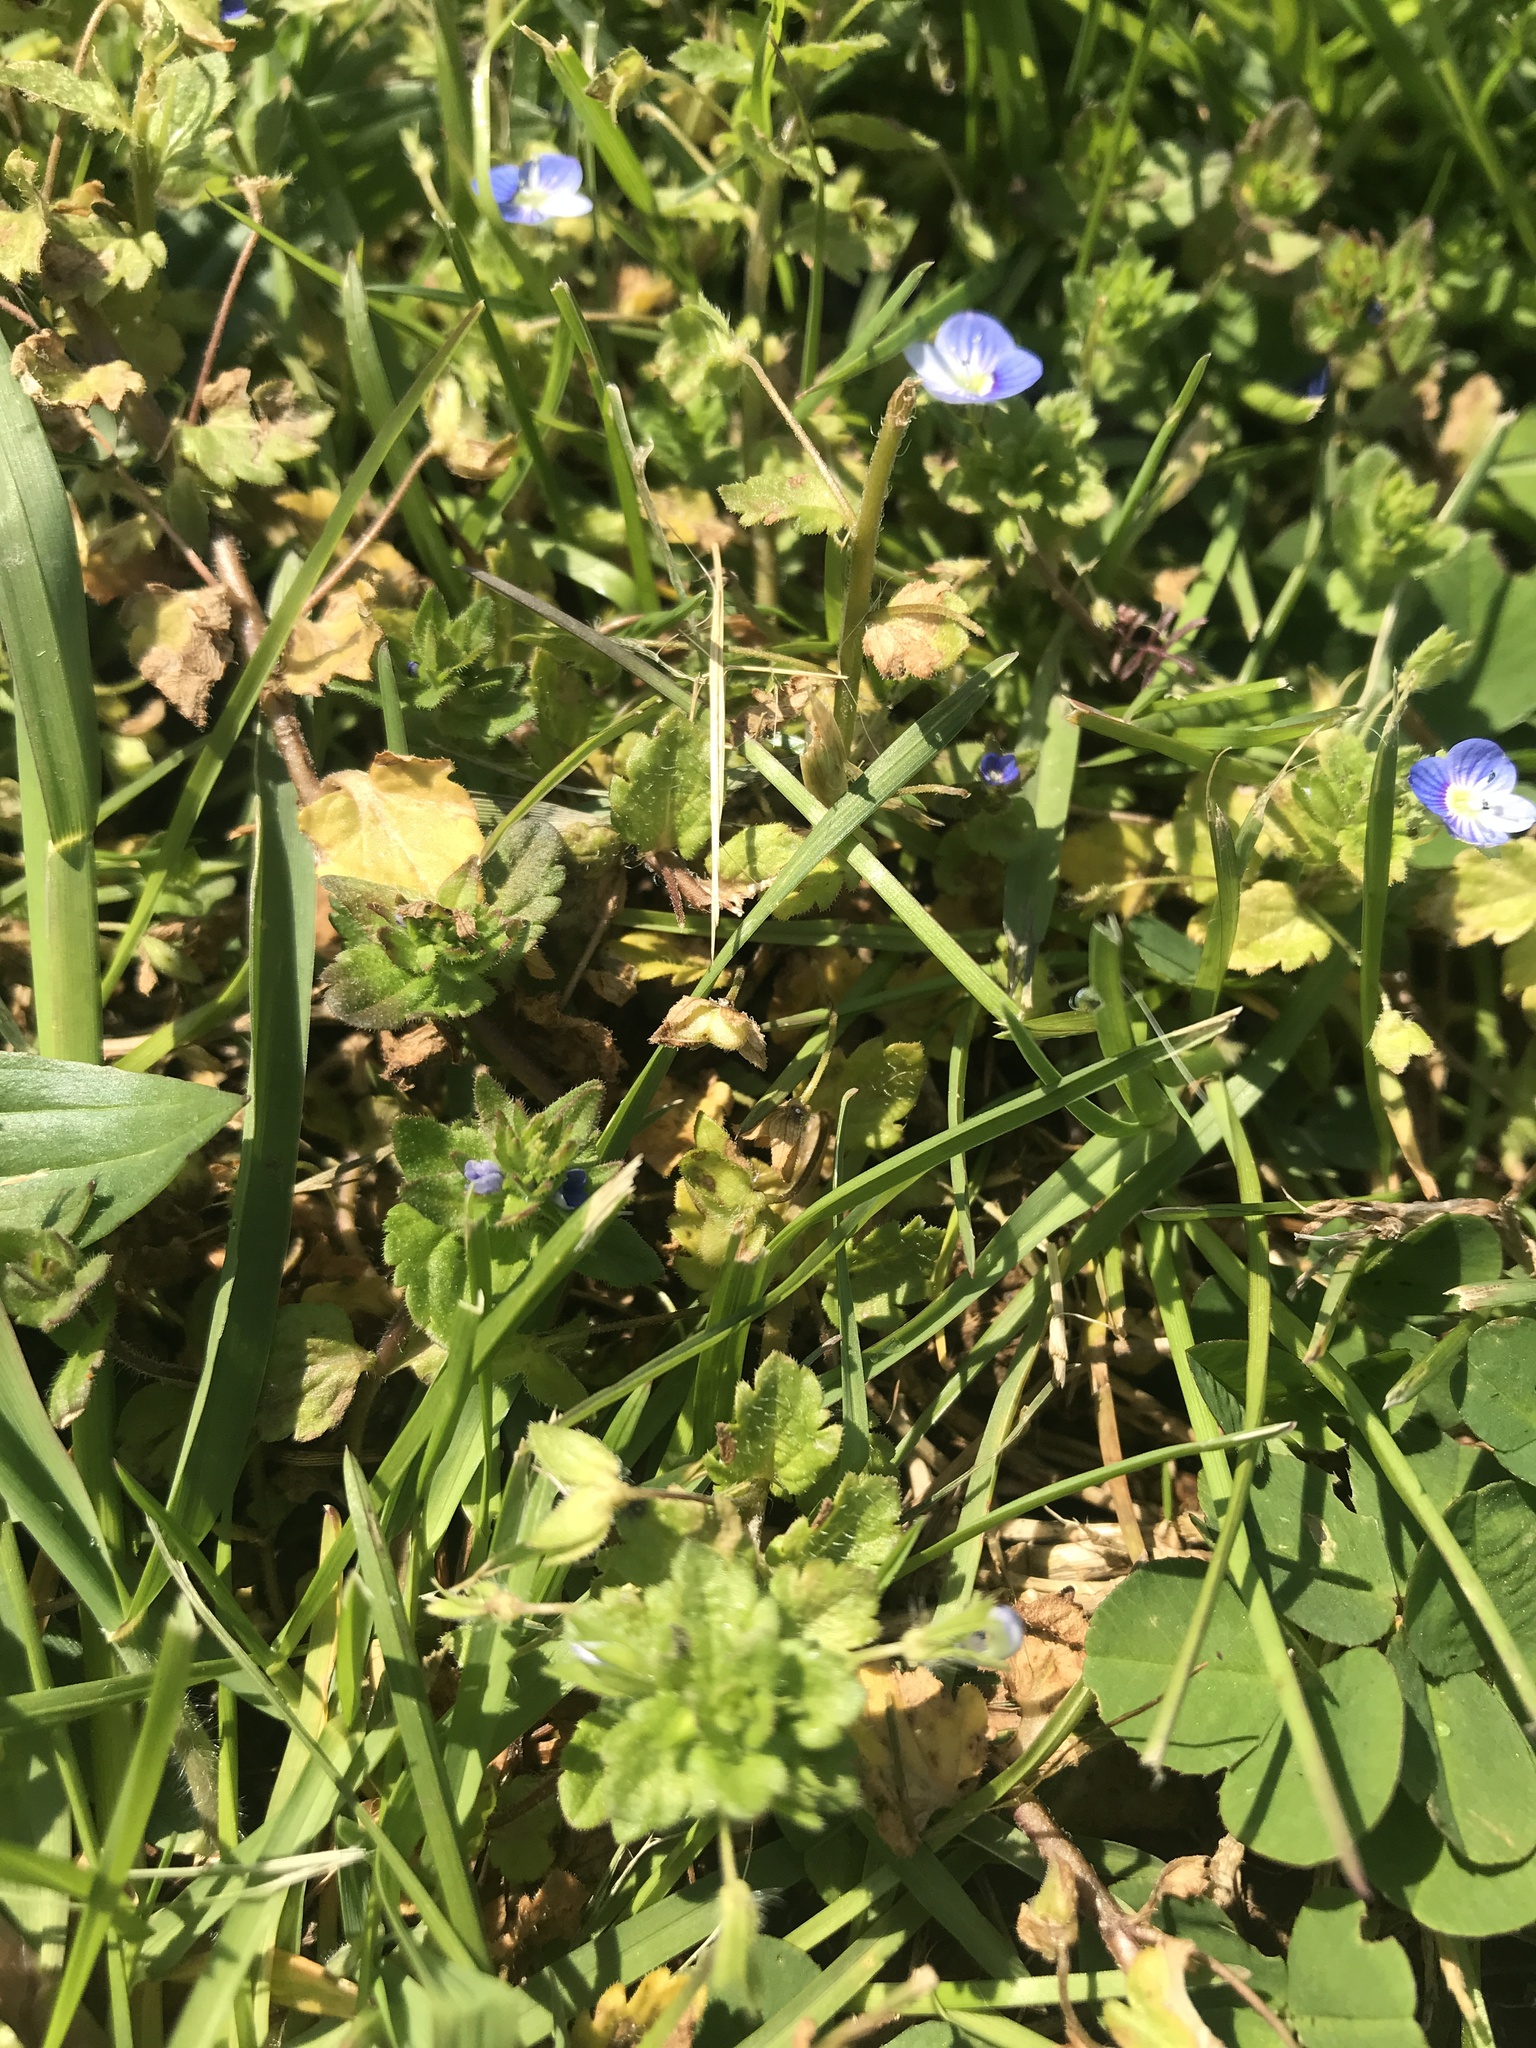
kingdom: Plantae
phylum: Tracheophyta
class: Magnoliopsida
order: Lamiales
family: Plantaginaceae
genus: Veronica
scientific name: Veronica persica
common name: Common field-speedwell
